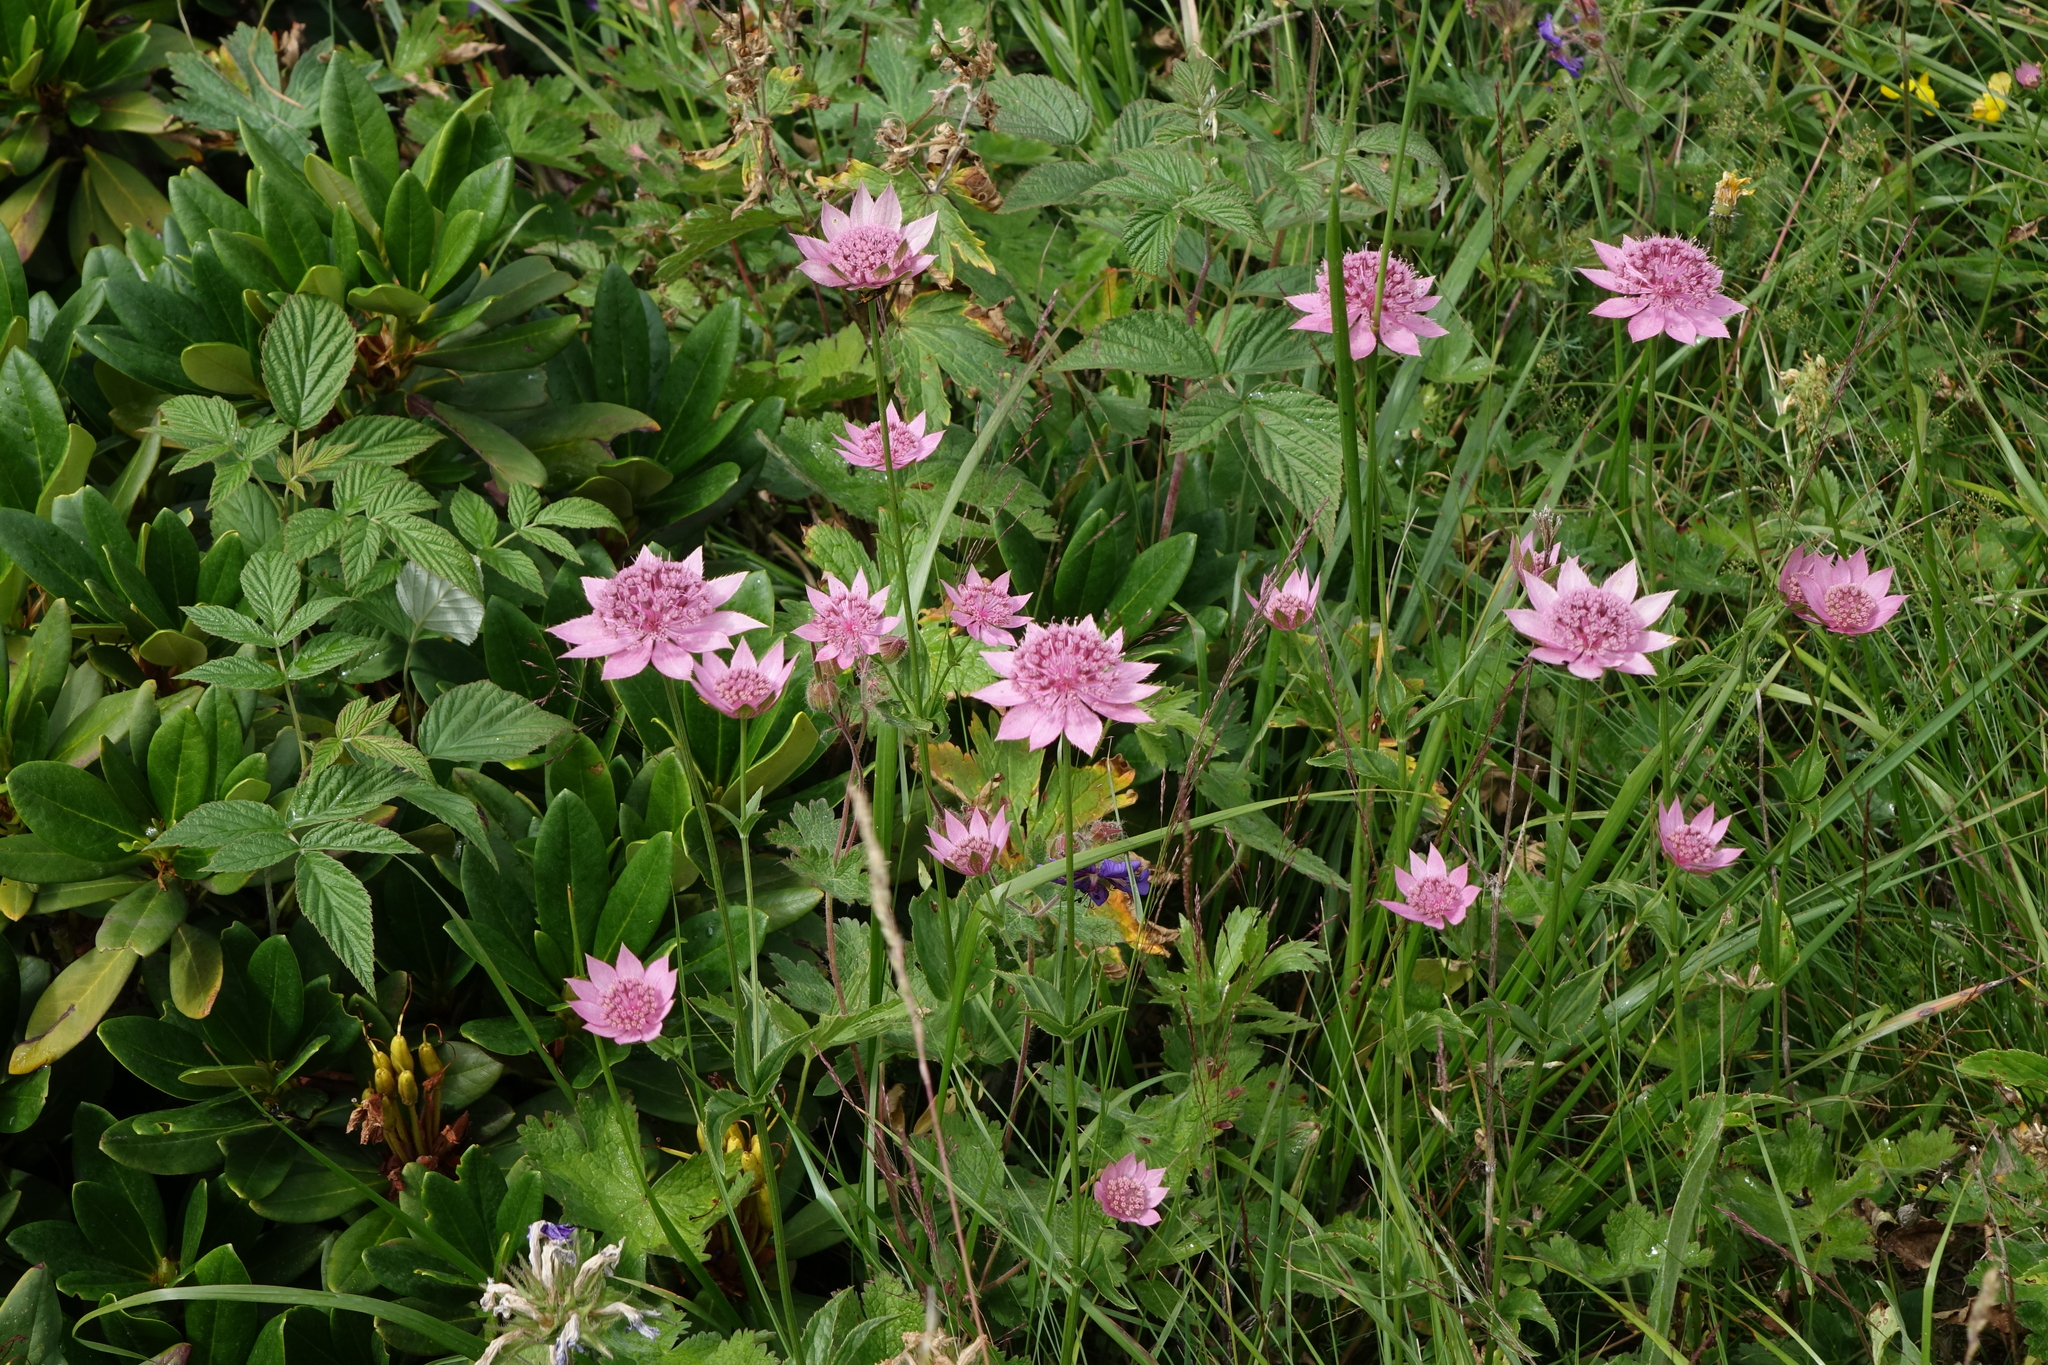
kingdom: Plantae
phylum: Tracheophyta
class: Magnoliopsida
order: Apiales
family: Apiaceae
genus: Astrantia
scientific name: Astrantia maxima
